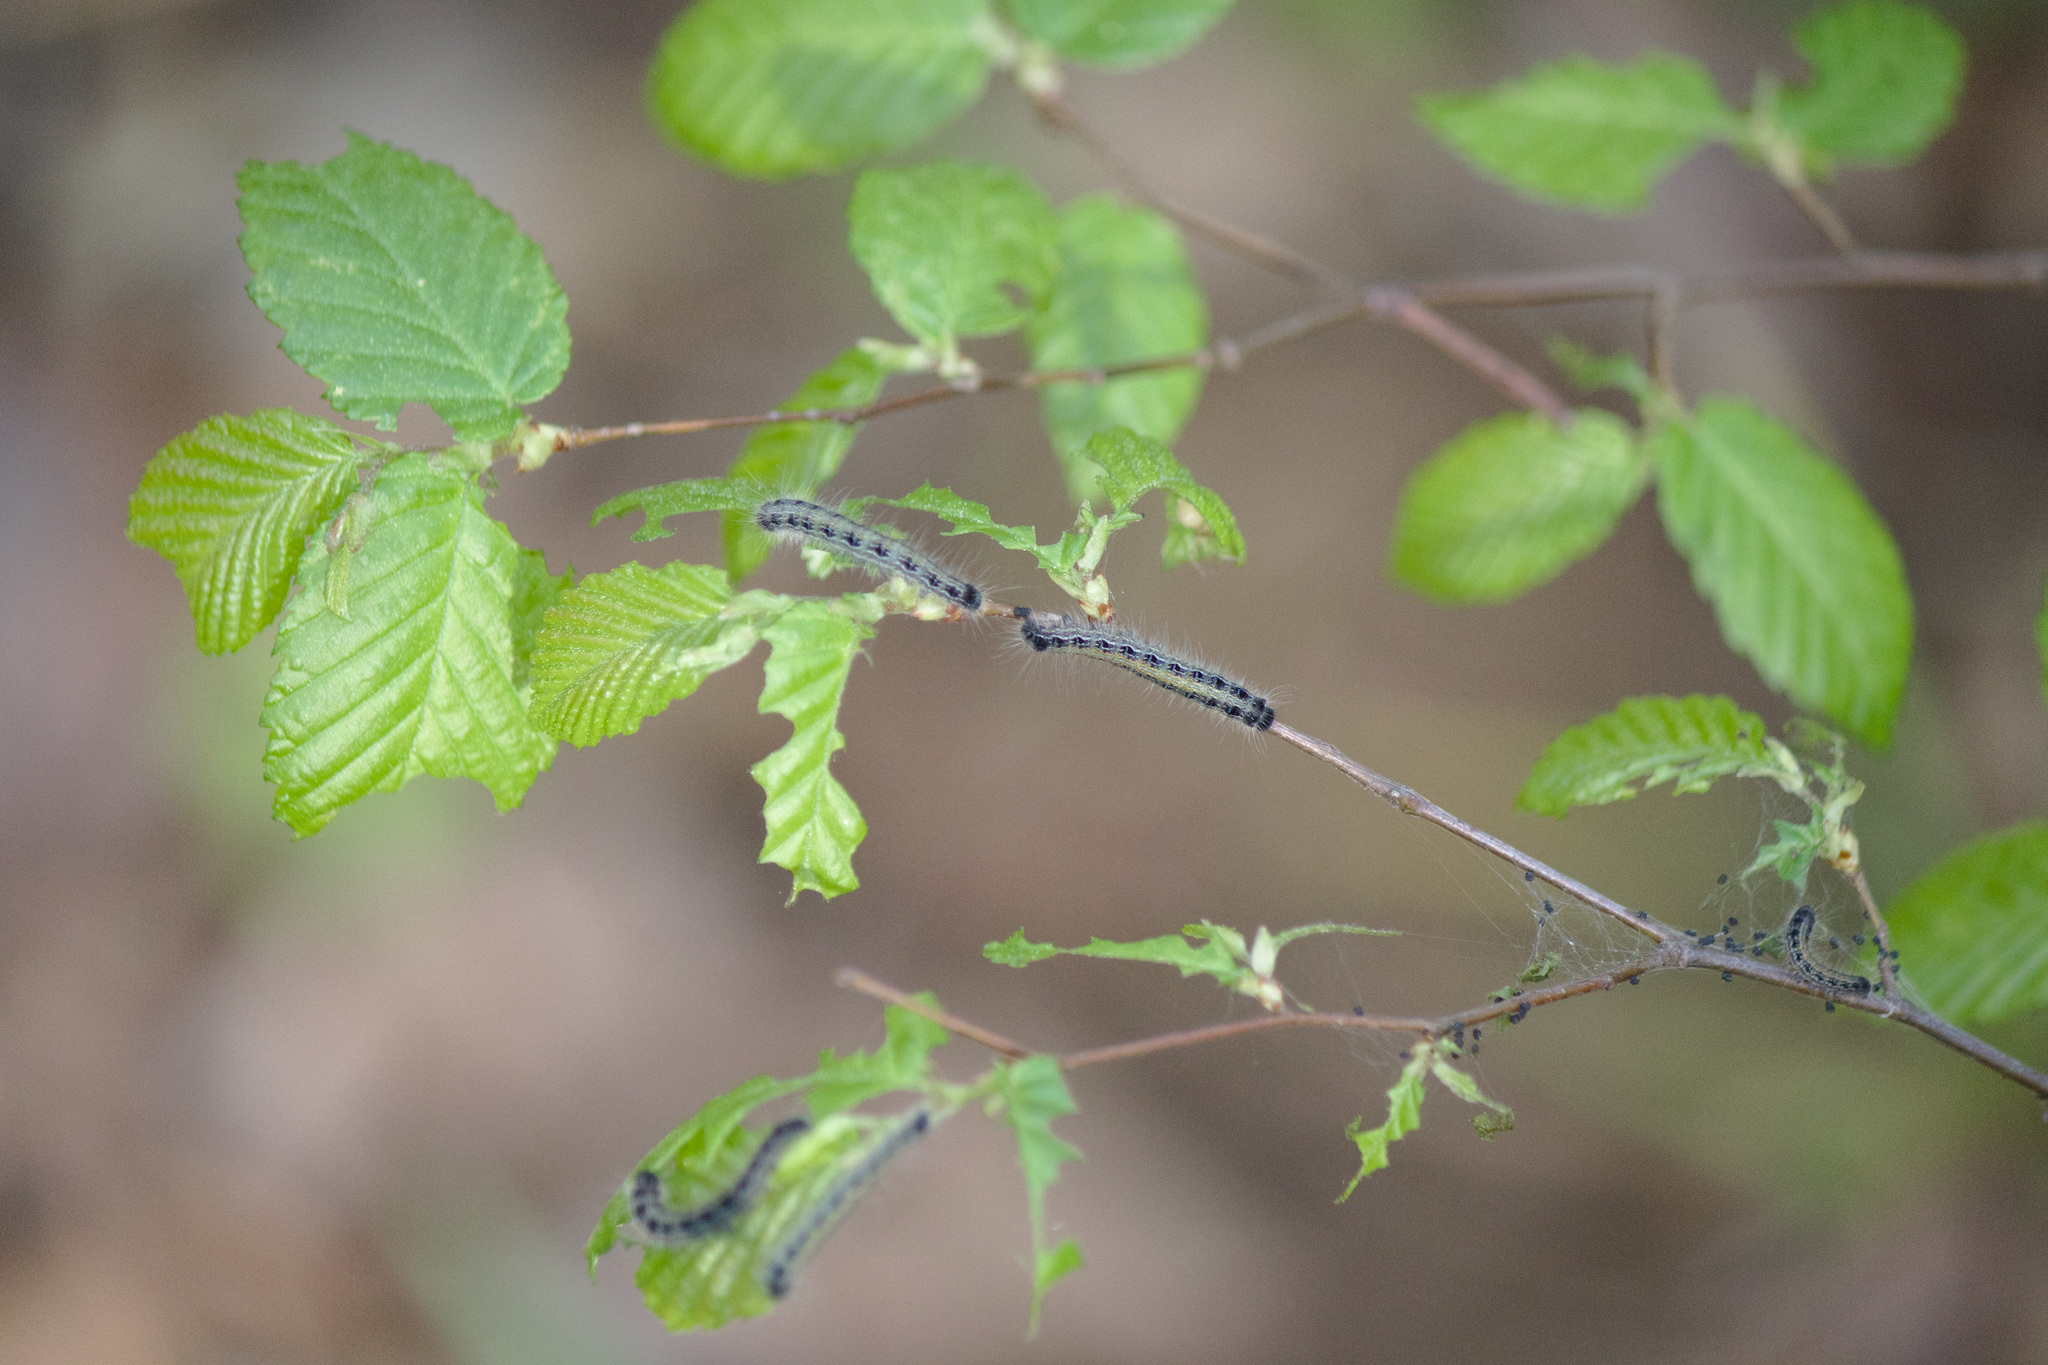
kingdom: Animalia
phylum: Arthropoda
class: Insecta
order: Lepidoptera
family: Lasiocampidae
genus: Malacosoma
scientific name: Malacosoma americana
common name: Eastern tent caterpillar moth
